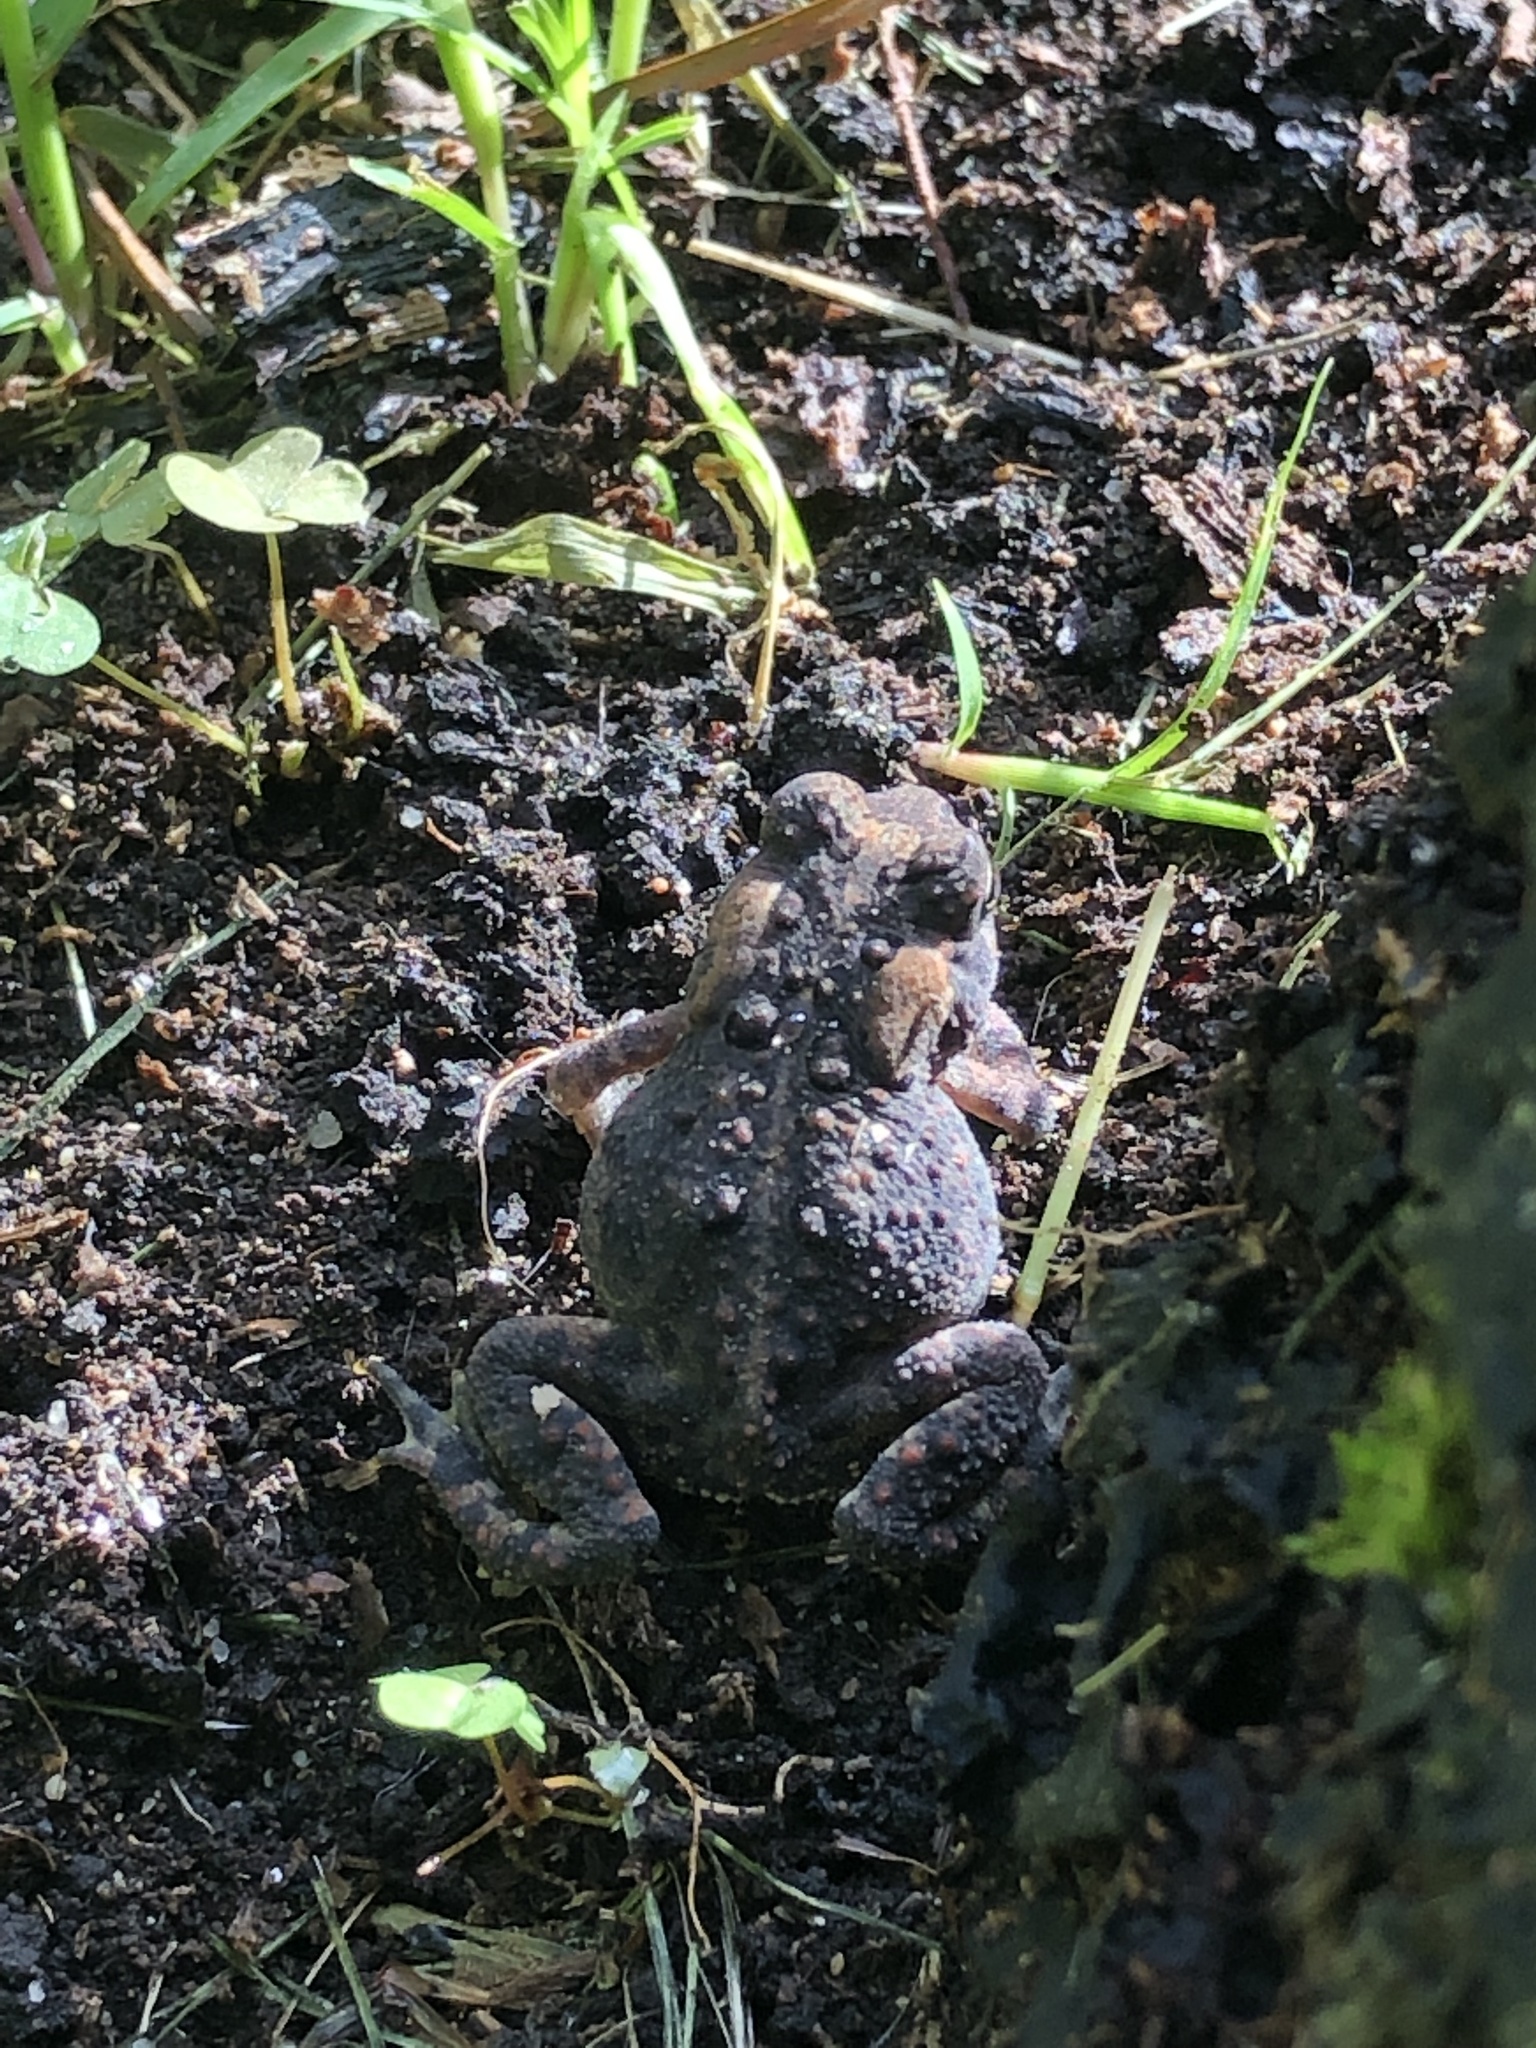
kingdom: Animalia
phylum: Chordata
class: Amphibia
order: Anura
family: Bufonidae
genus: Anaxyrus
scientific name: Anaxyrus americanus
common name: American toad
